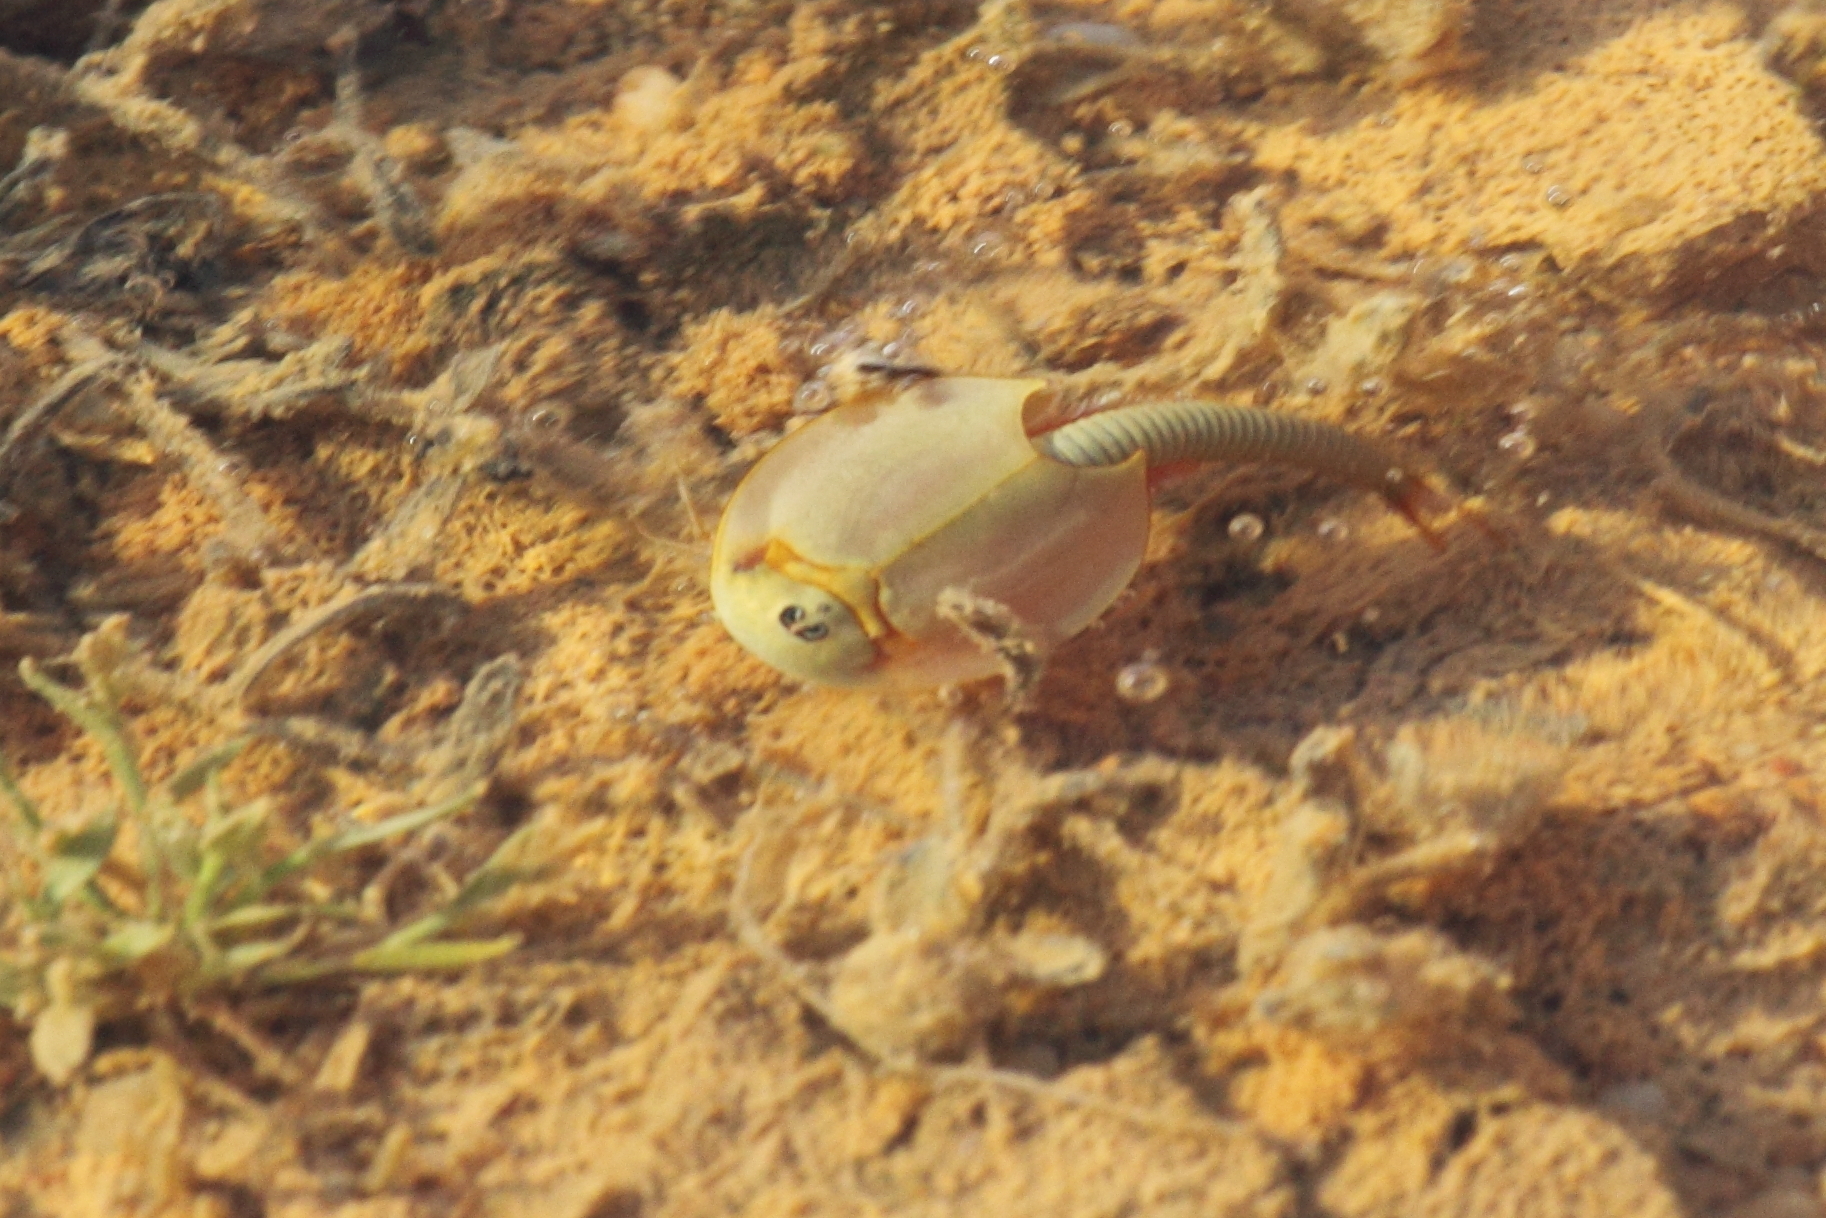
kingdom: Animalia
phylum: Arthropoda
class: Branchiopoda
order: Notostraca
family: Triopsidae
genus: Triops
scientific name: Triops australiensis
